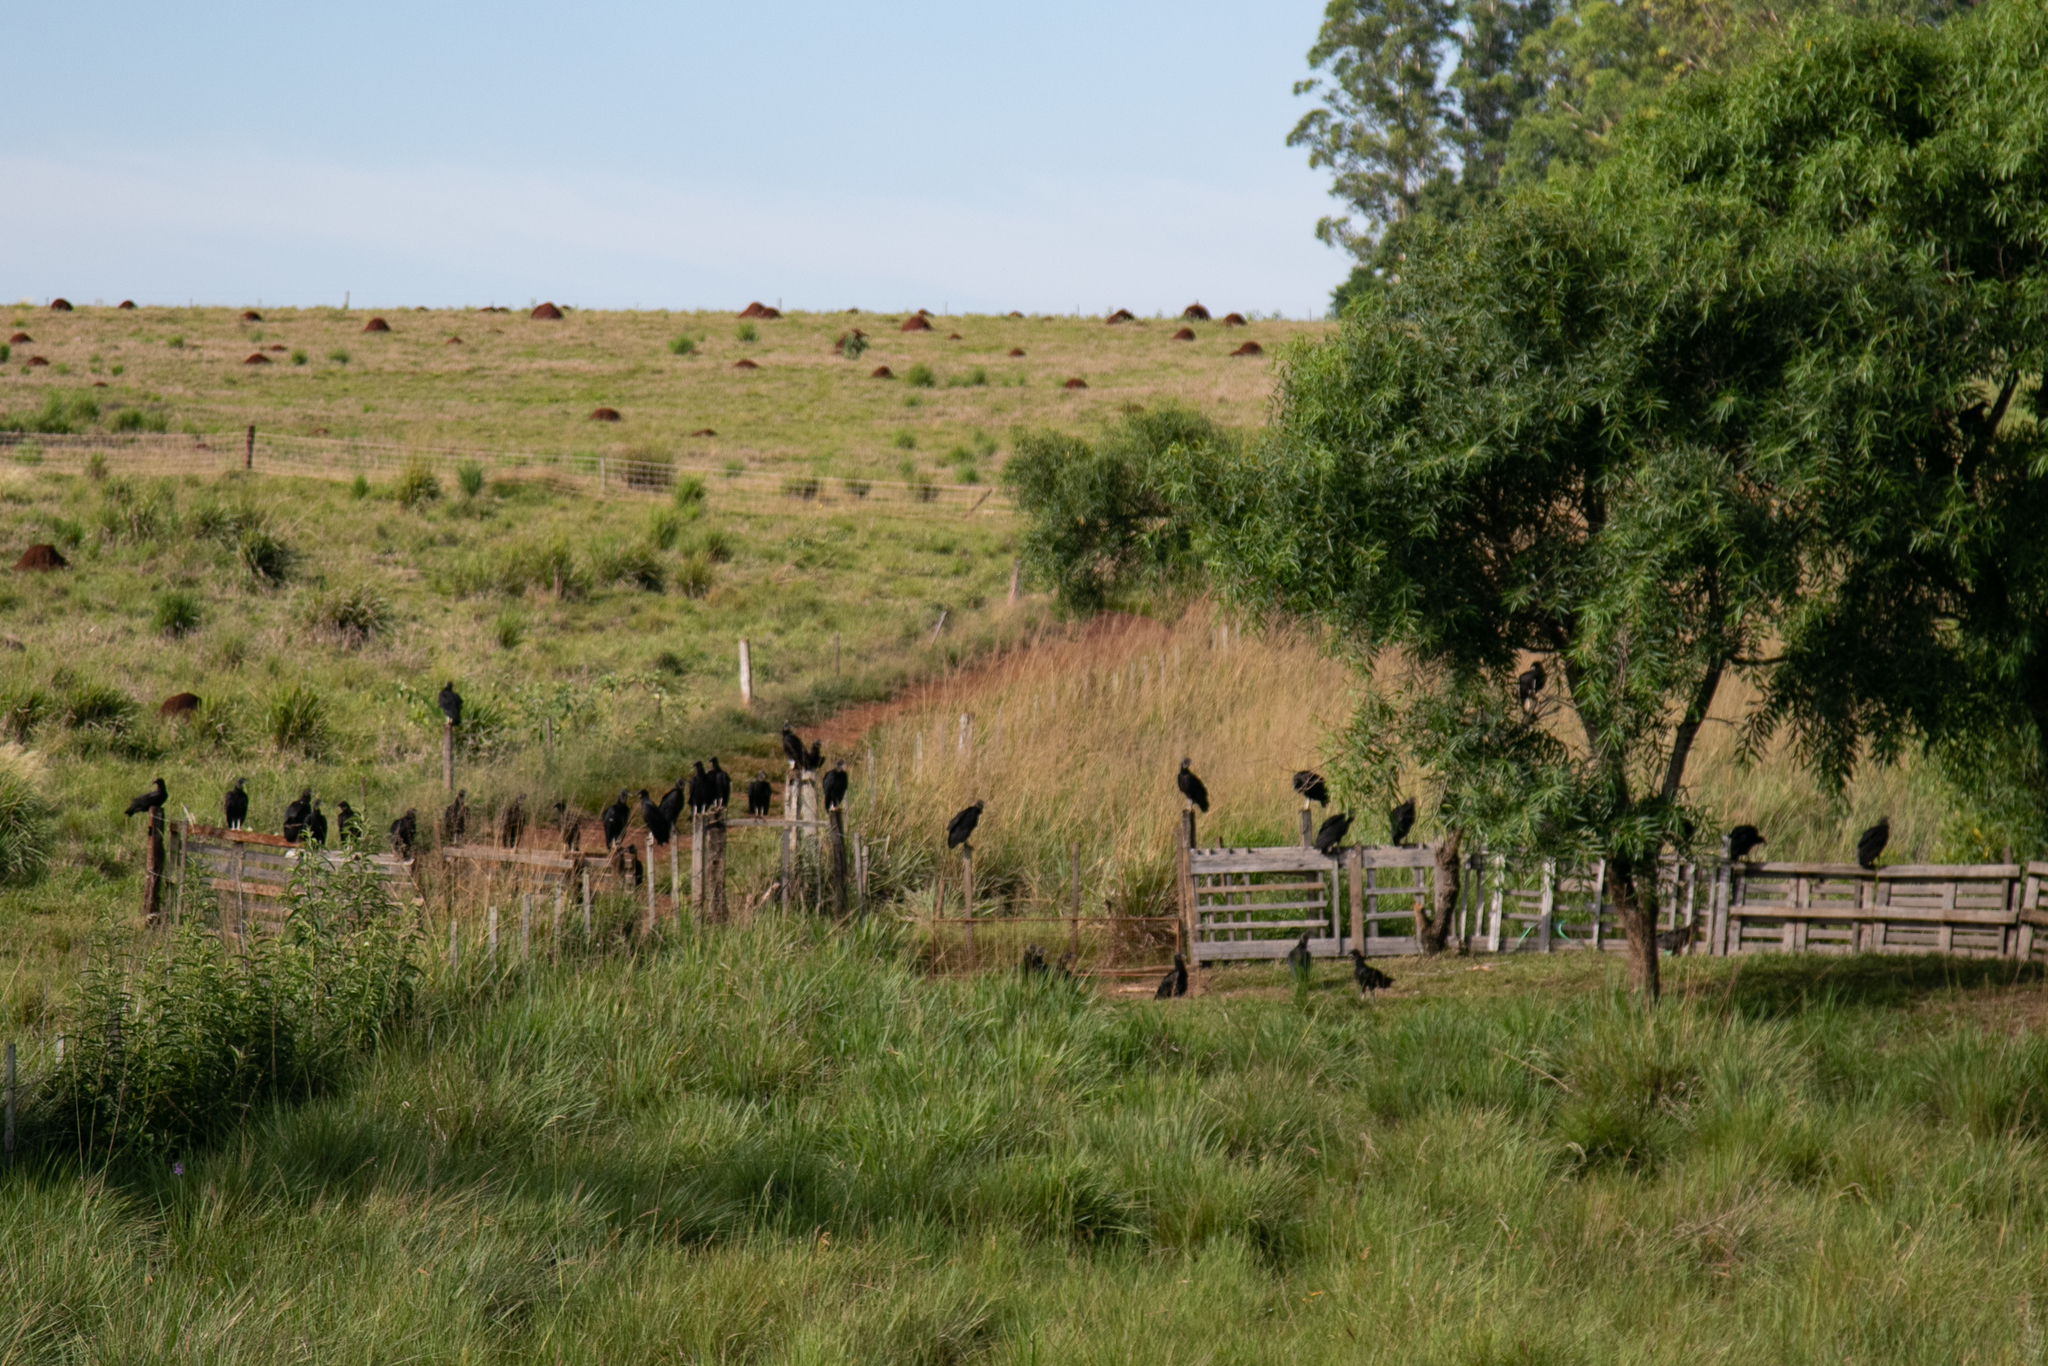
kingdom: Animalia
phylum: Chordata
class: Aves
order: Accipitriformes
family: Cathartidae
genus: Coragyps
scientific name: Coragyps atratus
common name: Black vulture
